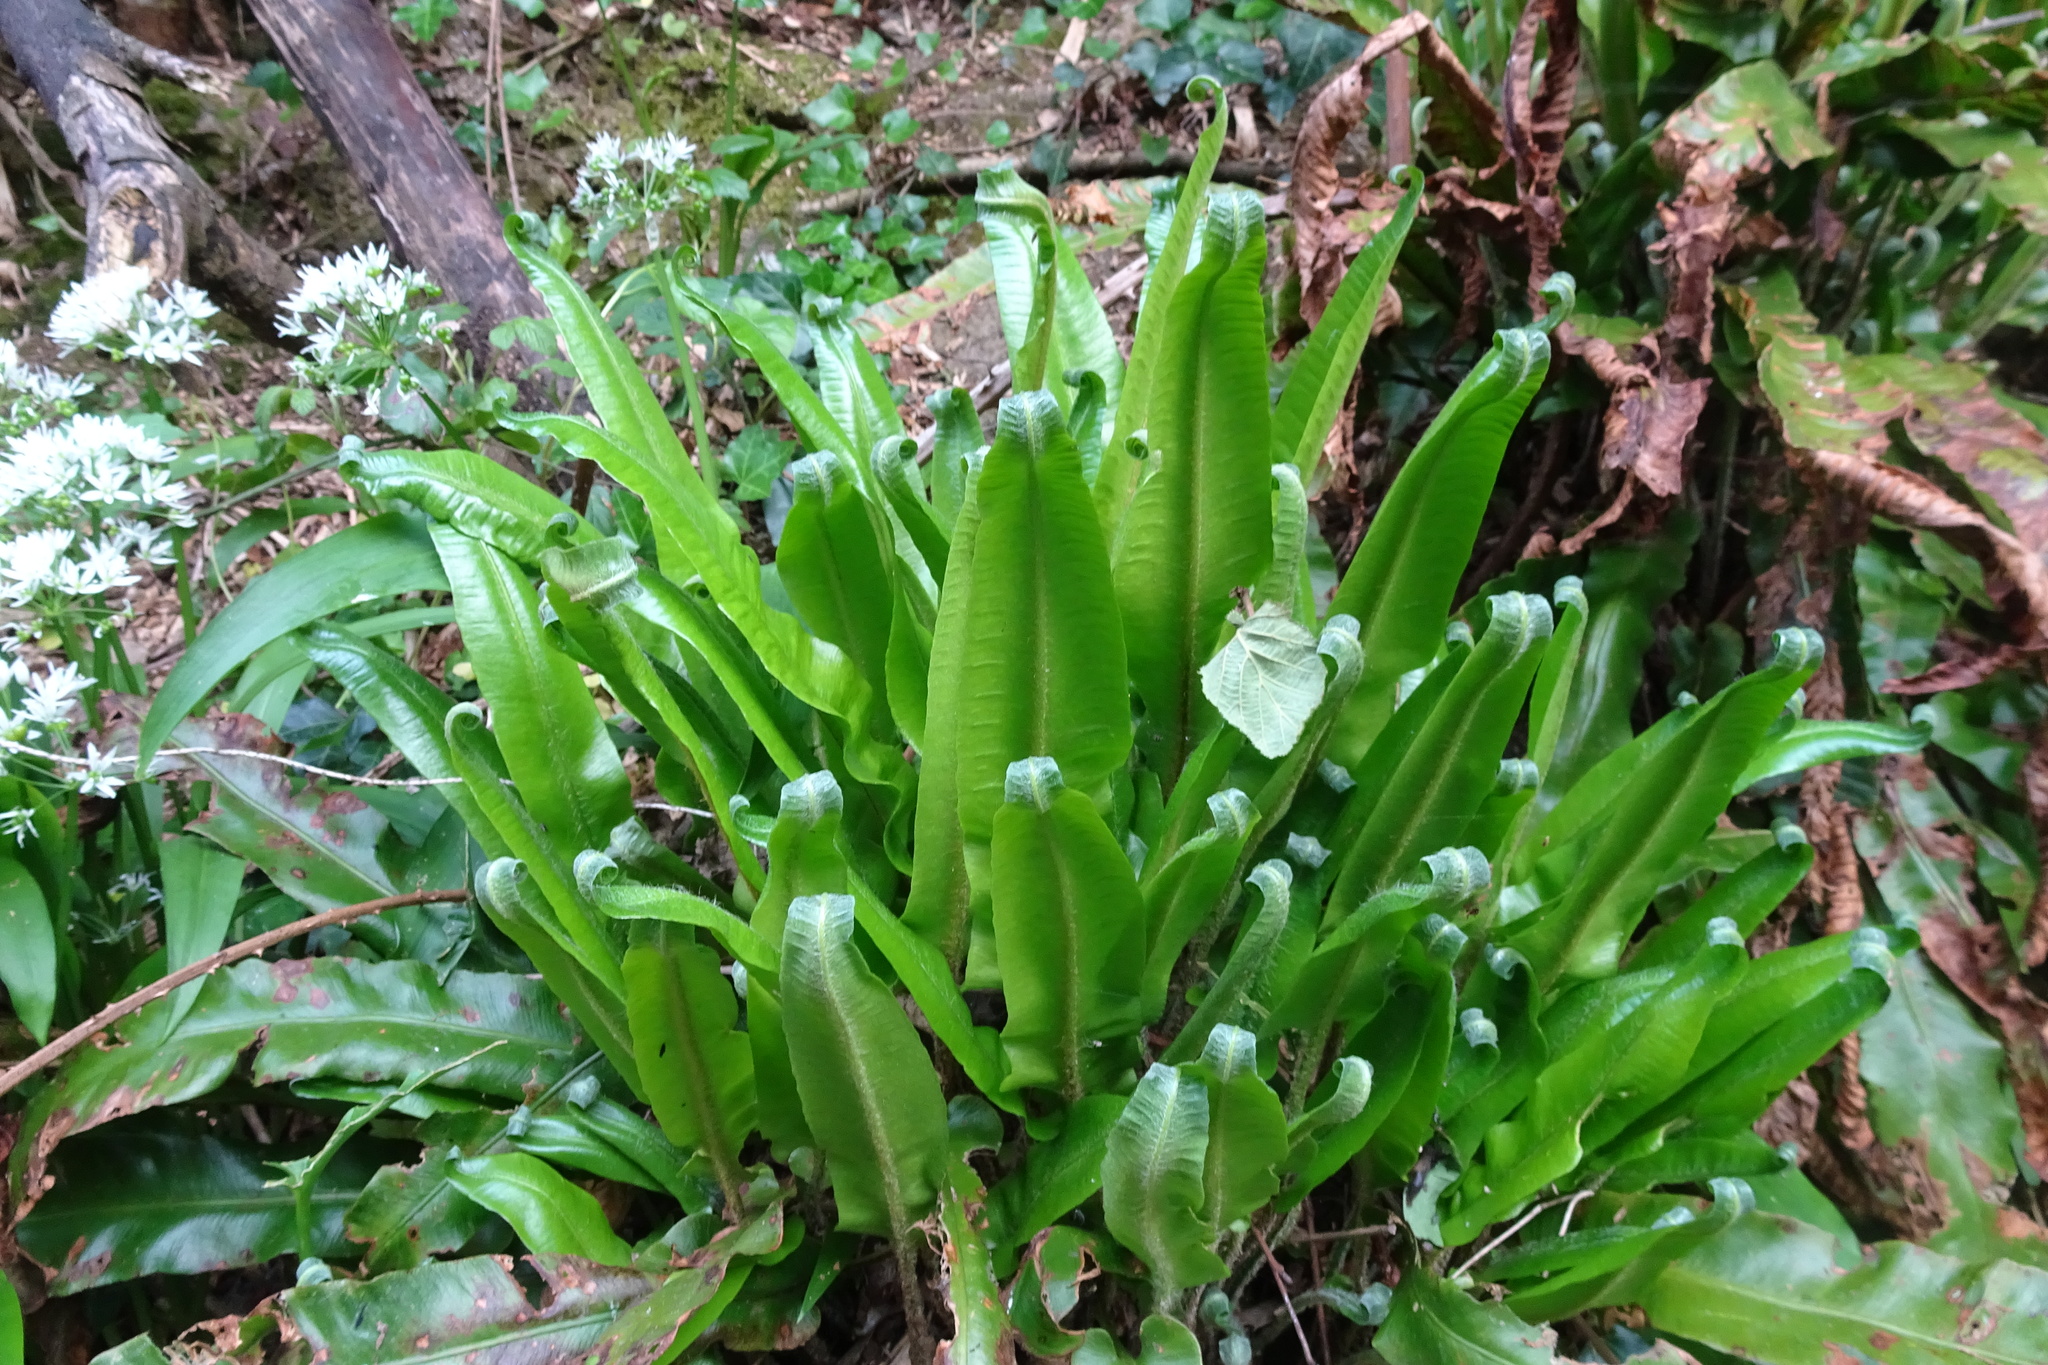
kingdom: Plantae
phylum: Tracheophyta
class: Polypodiopsida
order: Polypodiales
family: Aspleniaceae
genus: Asplenium
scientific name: Asplenium scolopendrium
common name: Hart's-tongue fern
